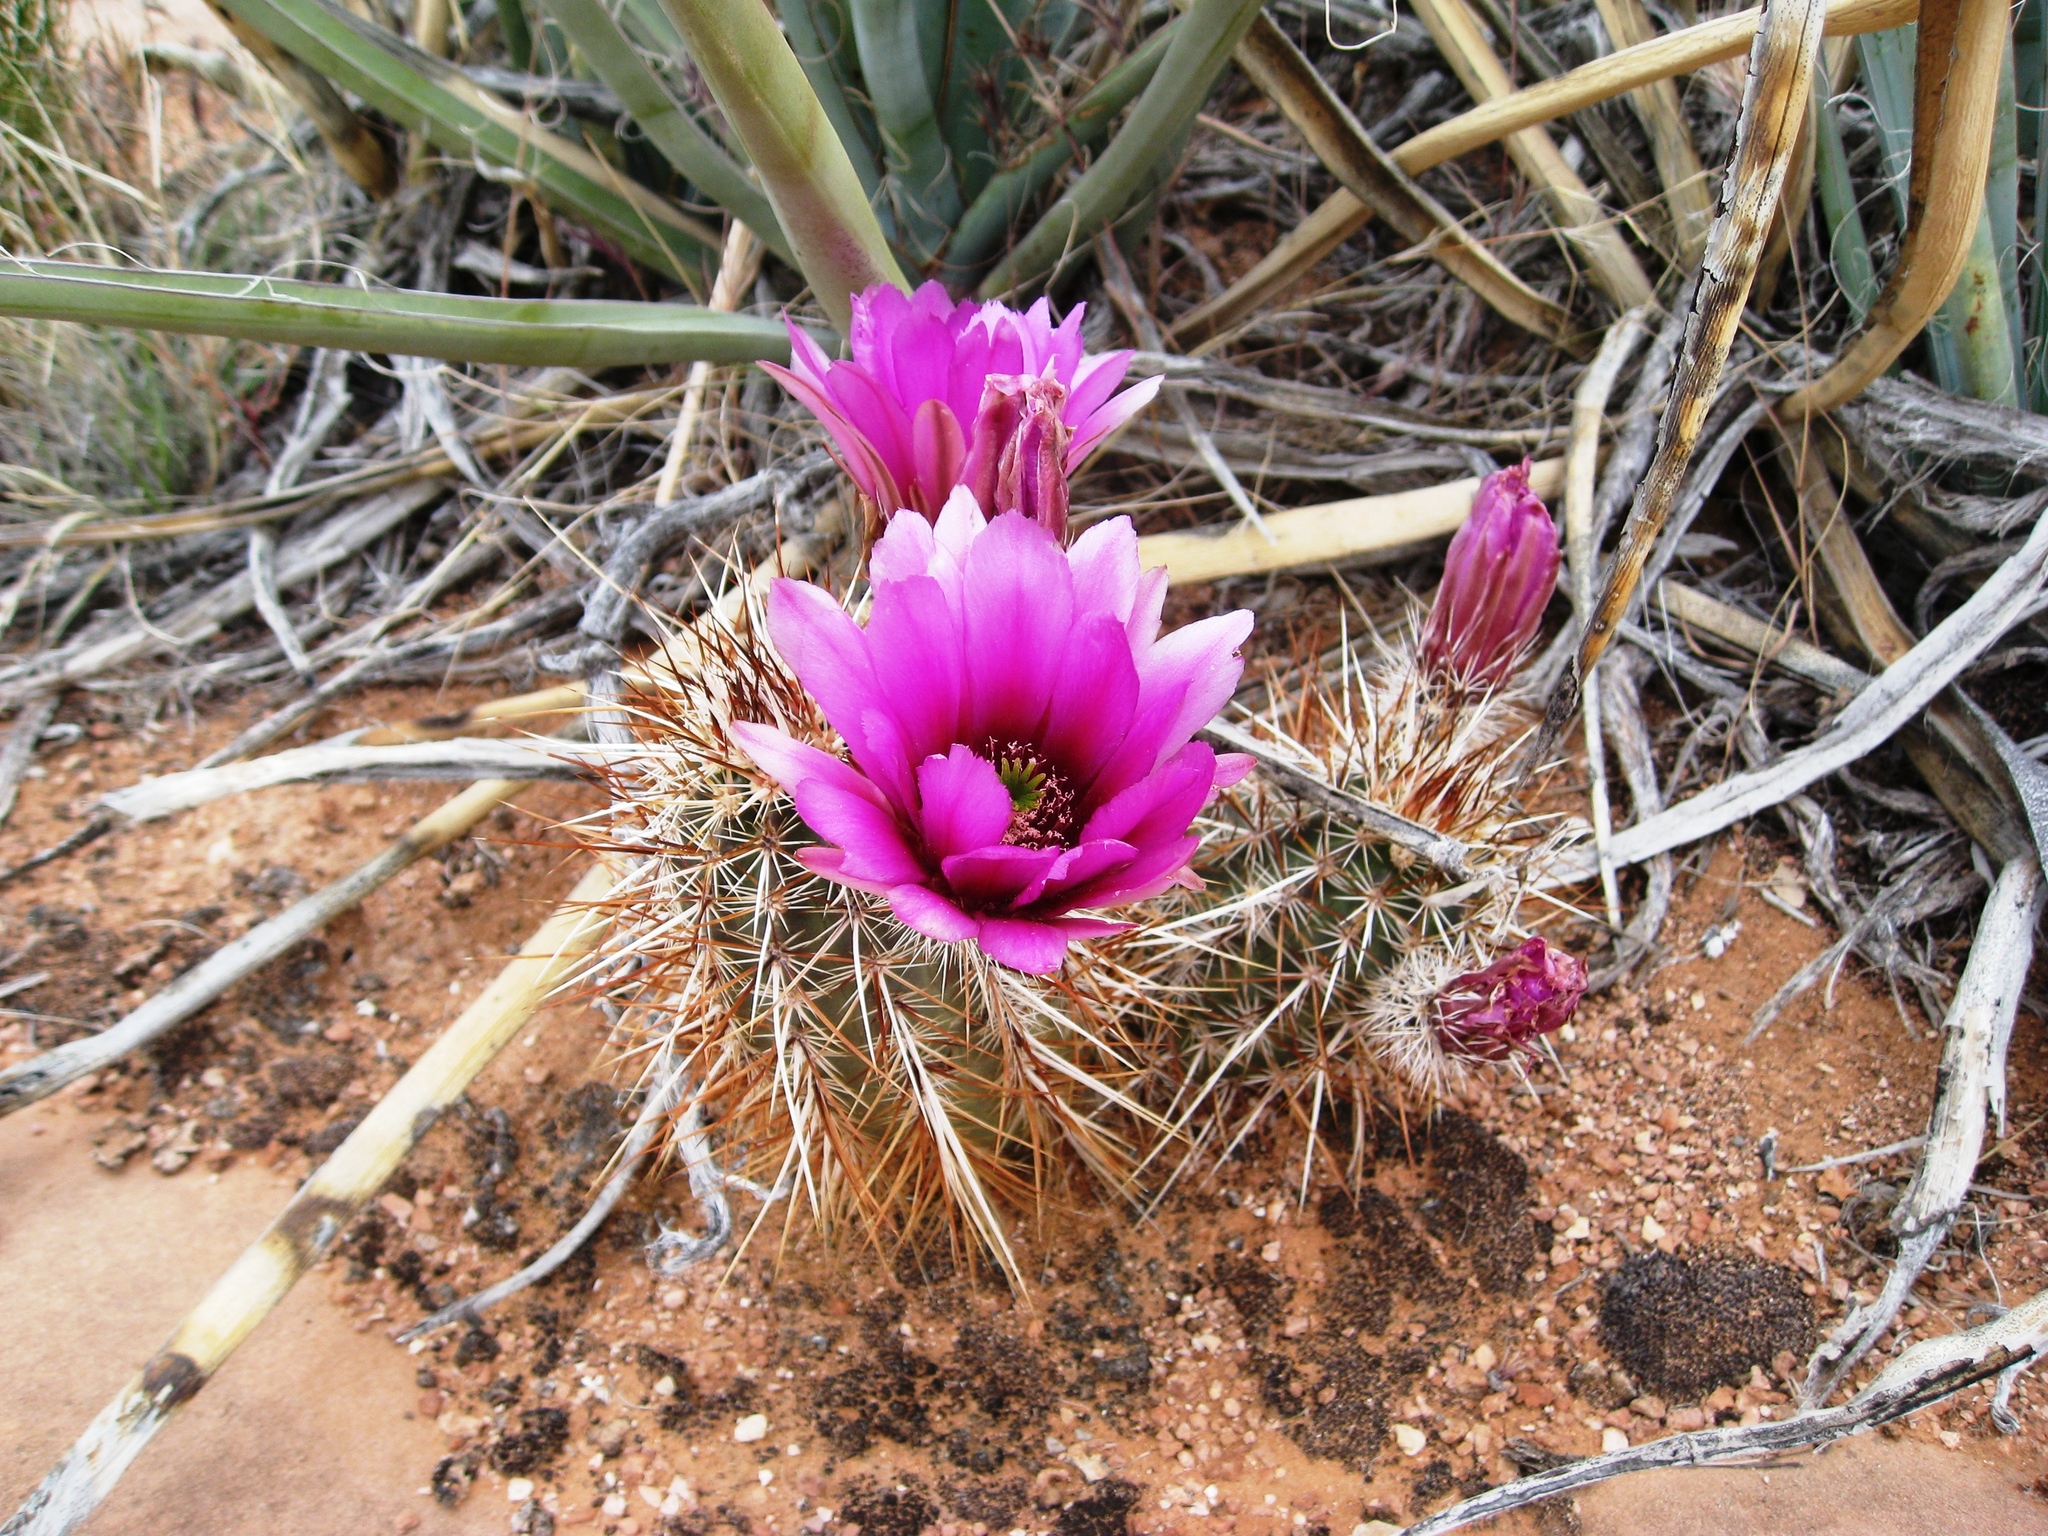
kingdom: Plantae
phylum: Tracheophyta
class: Magnoliopsida
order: Caryophyllales
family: Cactaceae
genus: Echinocereus
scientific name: Echinocereus engelmannii
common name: Engelmann's hedgehog cactus
